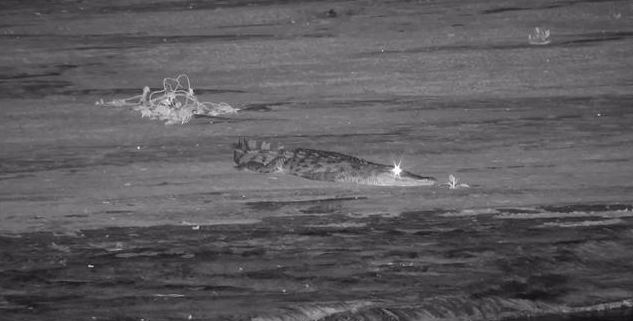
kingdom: Animalia
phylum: Chordata
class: Crocodylia
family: Crocodylidae
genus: Crocodylus
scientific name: Crocodylus niloticus
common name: Nile crocodile
